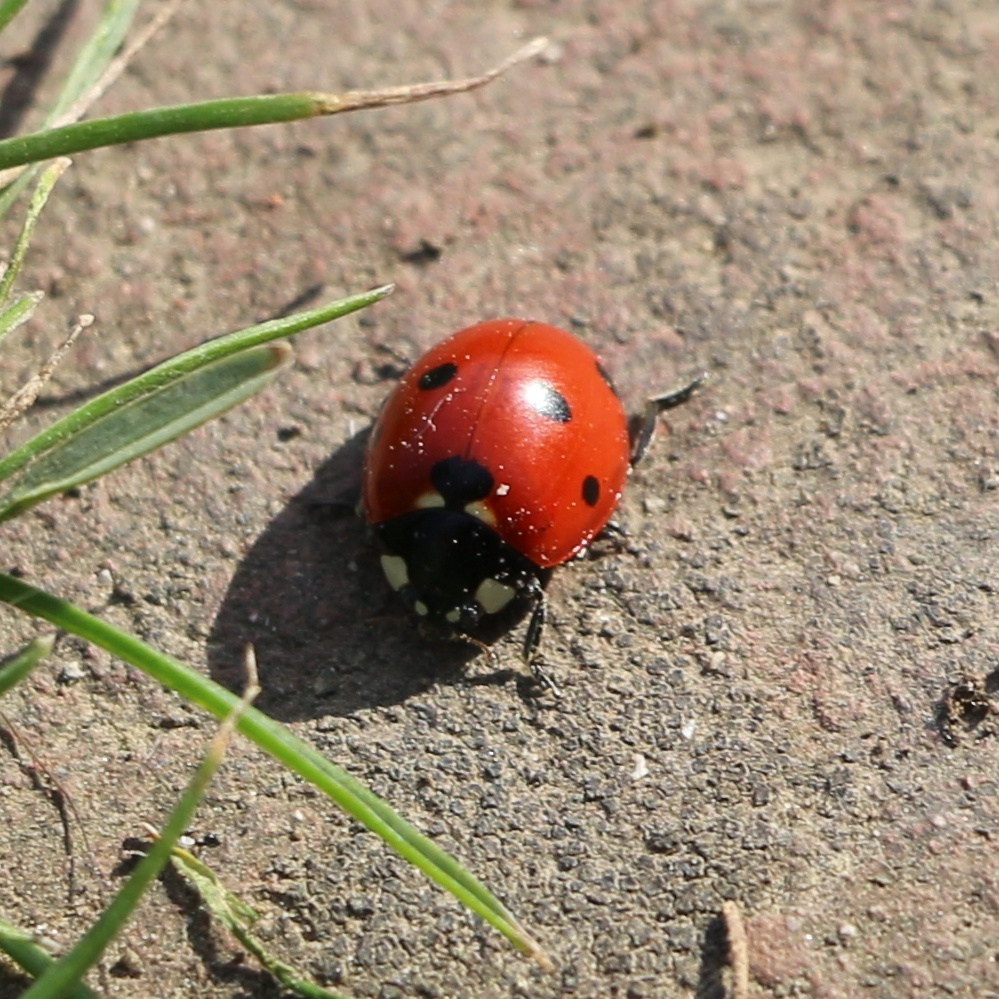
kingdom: Animalia
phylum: Arthropoda
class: Insecta
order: Coleoptera
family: Coccinellidae
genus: Coccinella
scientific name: Coccinella septempunctata
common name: Sevenspotted lady beetle
